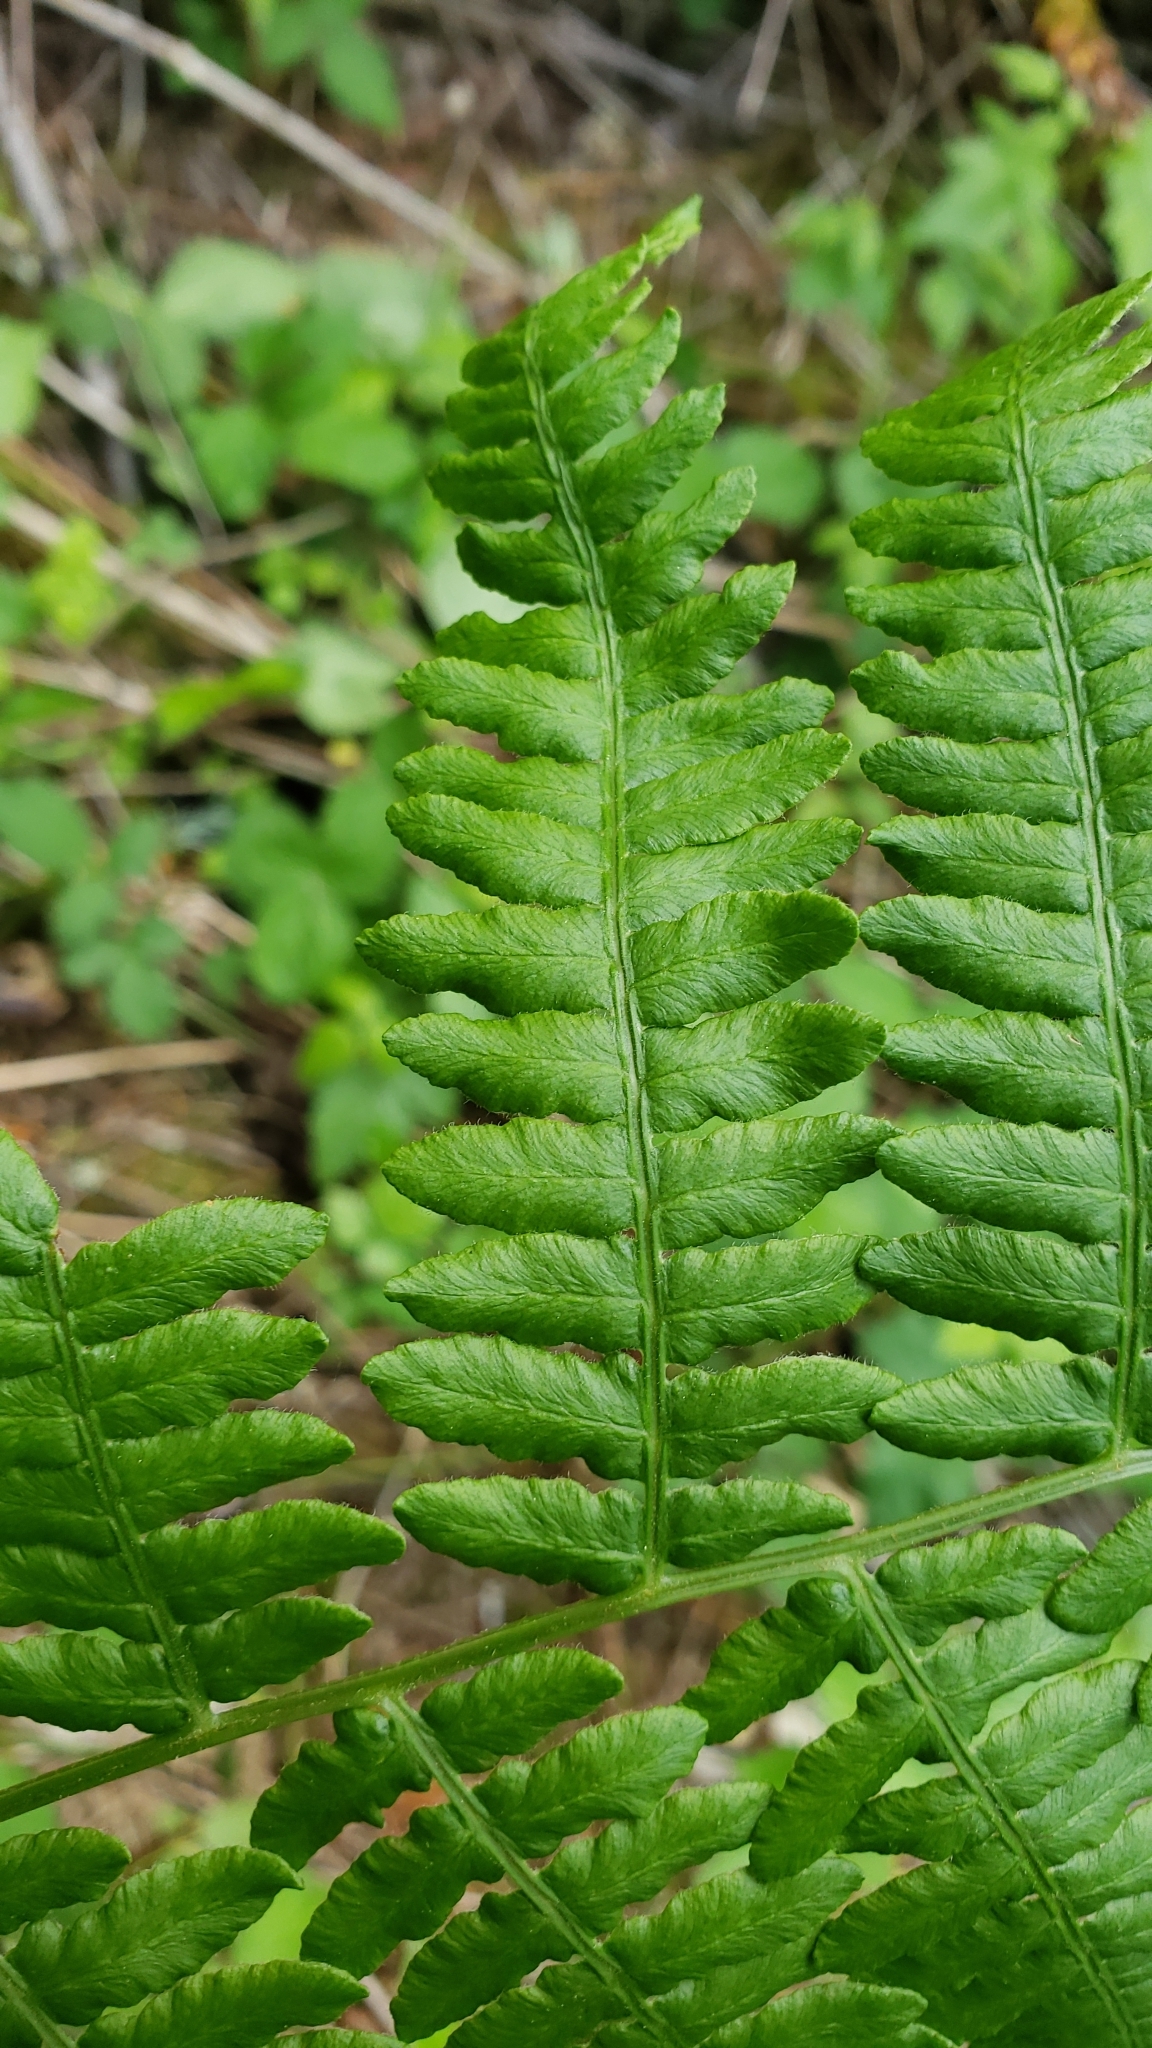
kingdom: Plantae
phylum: Tracheophyta
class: Polypodiopsida
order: Polypodiales
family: Dennstaedtiaceae
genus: Pteridium
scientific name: Pteridium aquilinum
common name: Bracken
